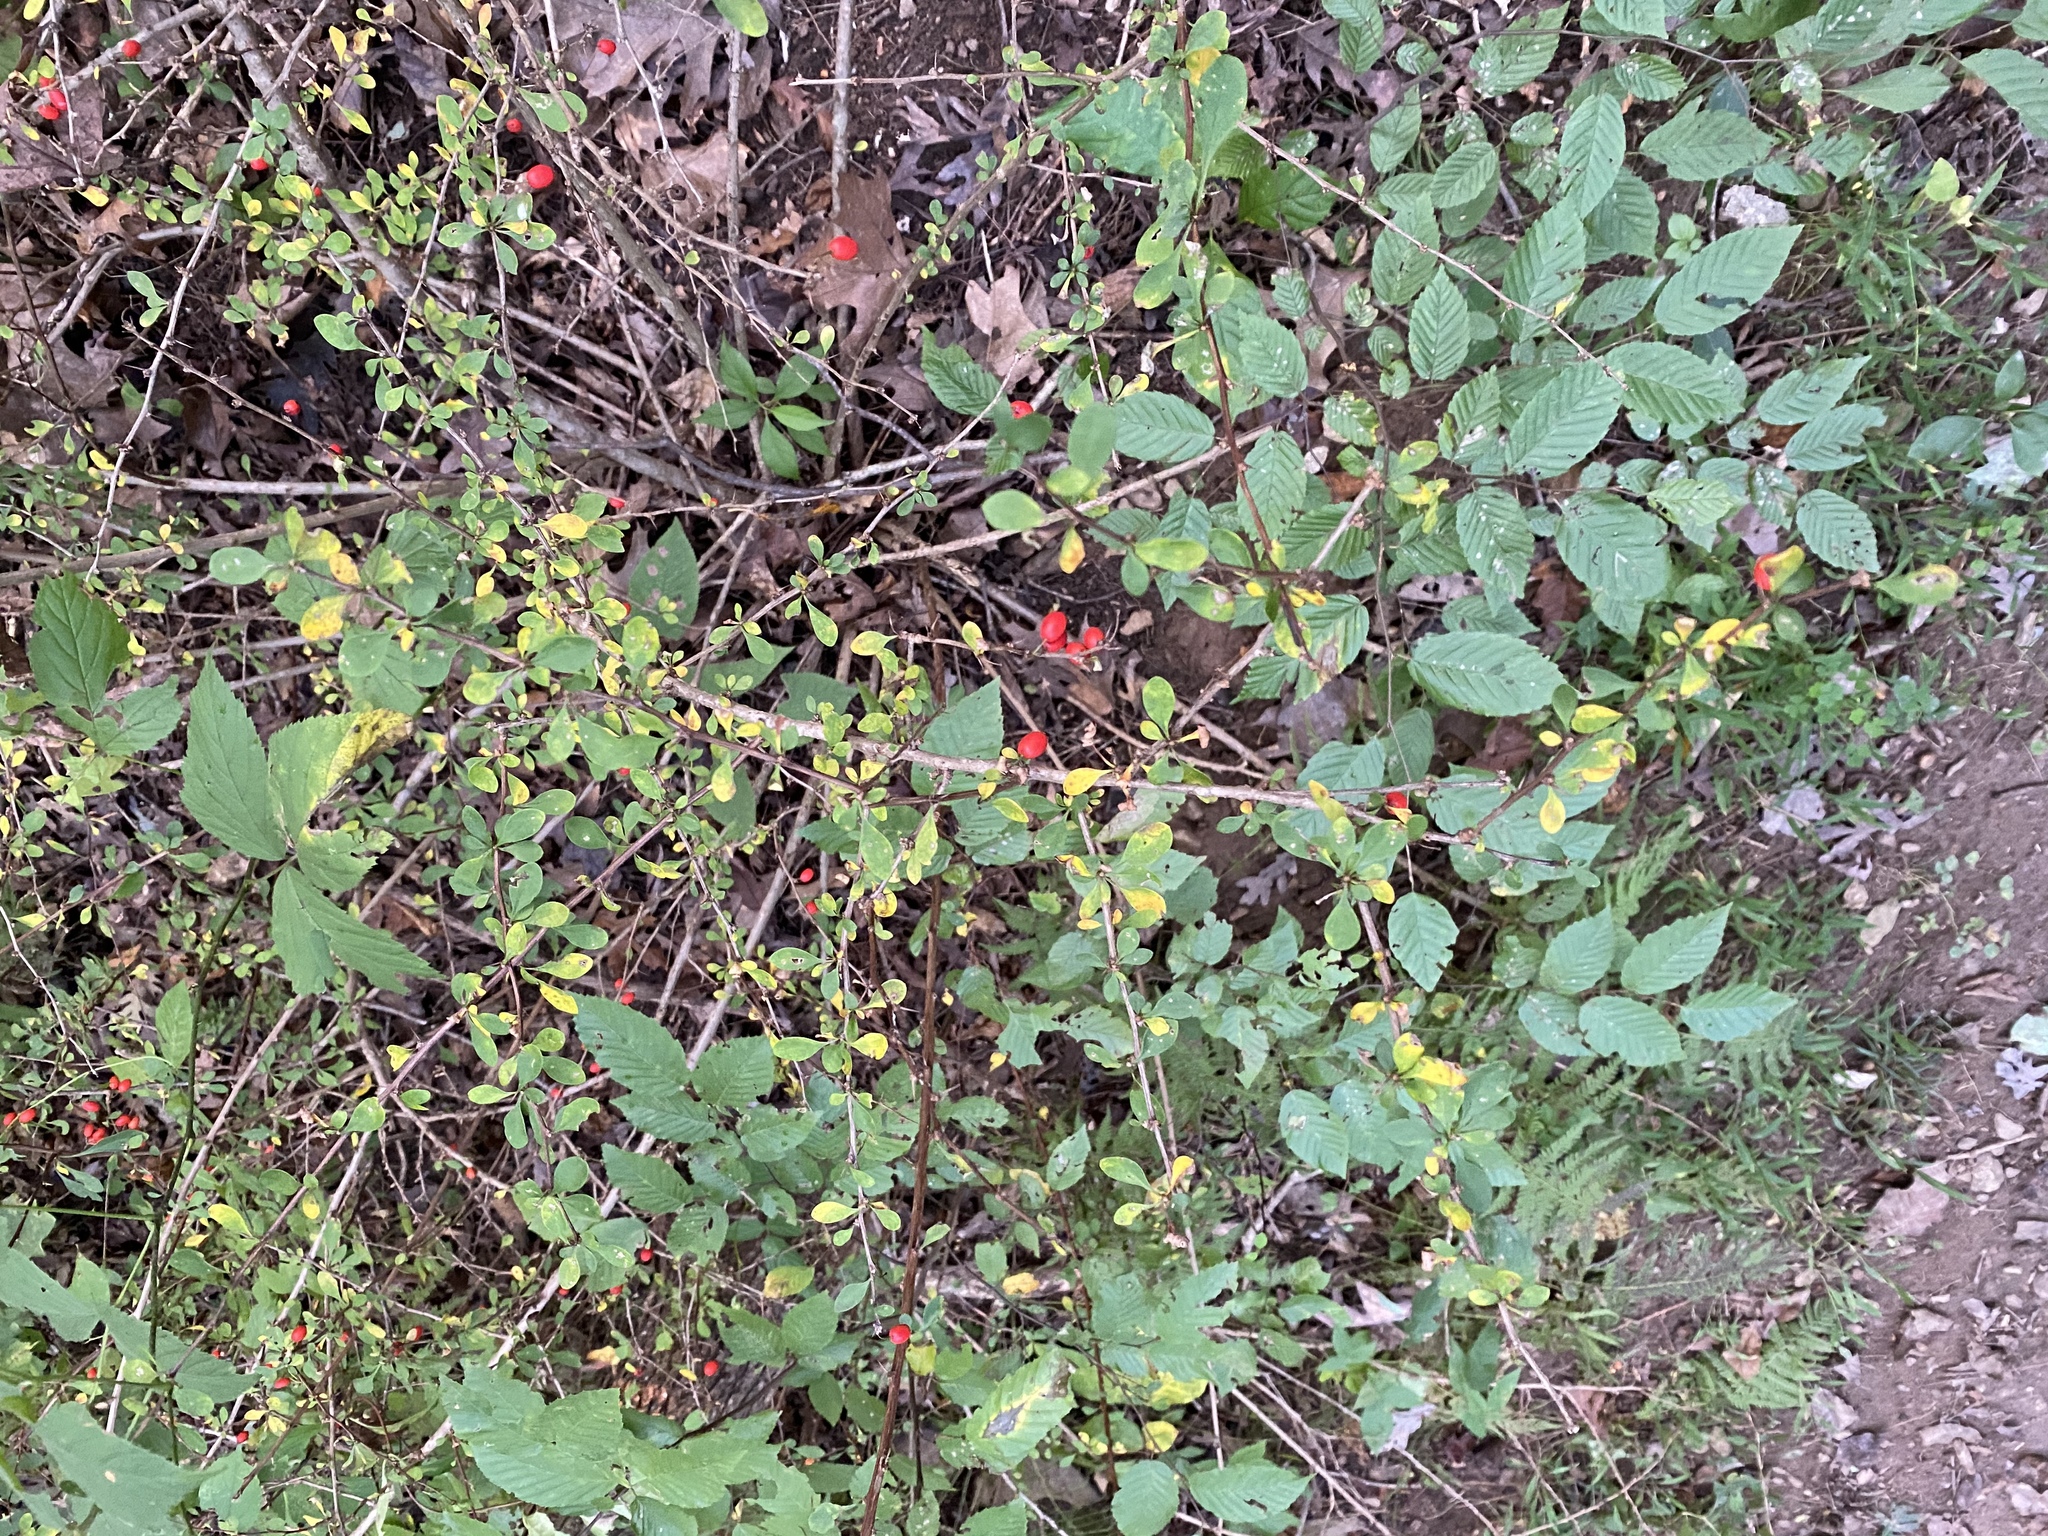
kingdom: Plantae
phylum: Tracheophyta
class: Magnoliopsida
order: Ranunculales
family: Berberidaceae
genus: Berberis
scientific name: Berberis thunbergii
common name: Japanese barberry
